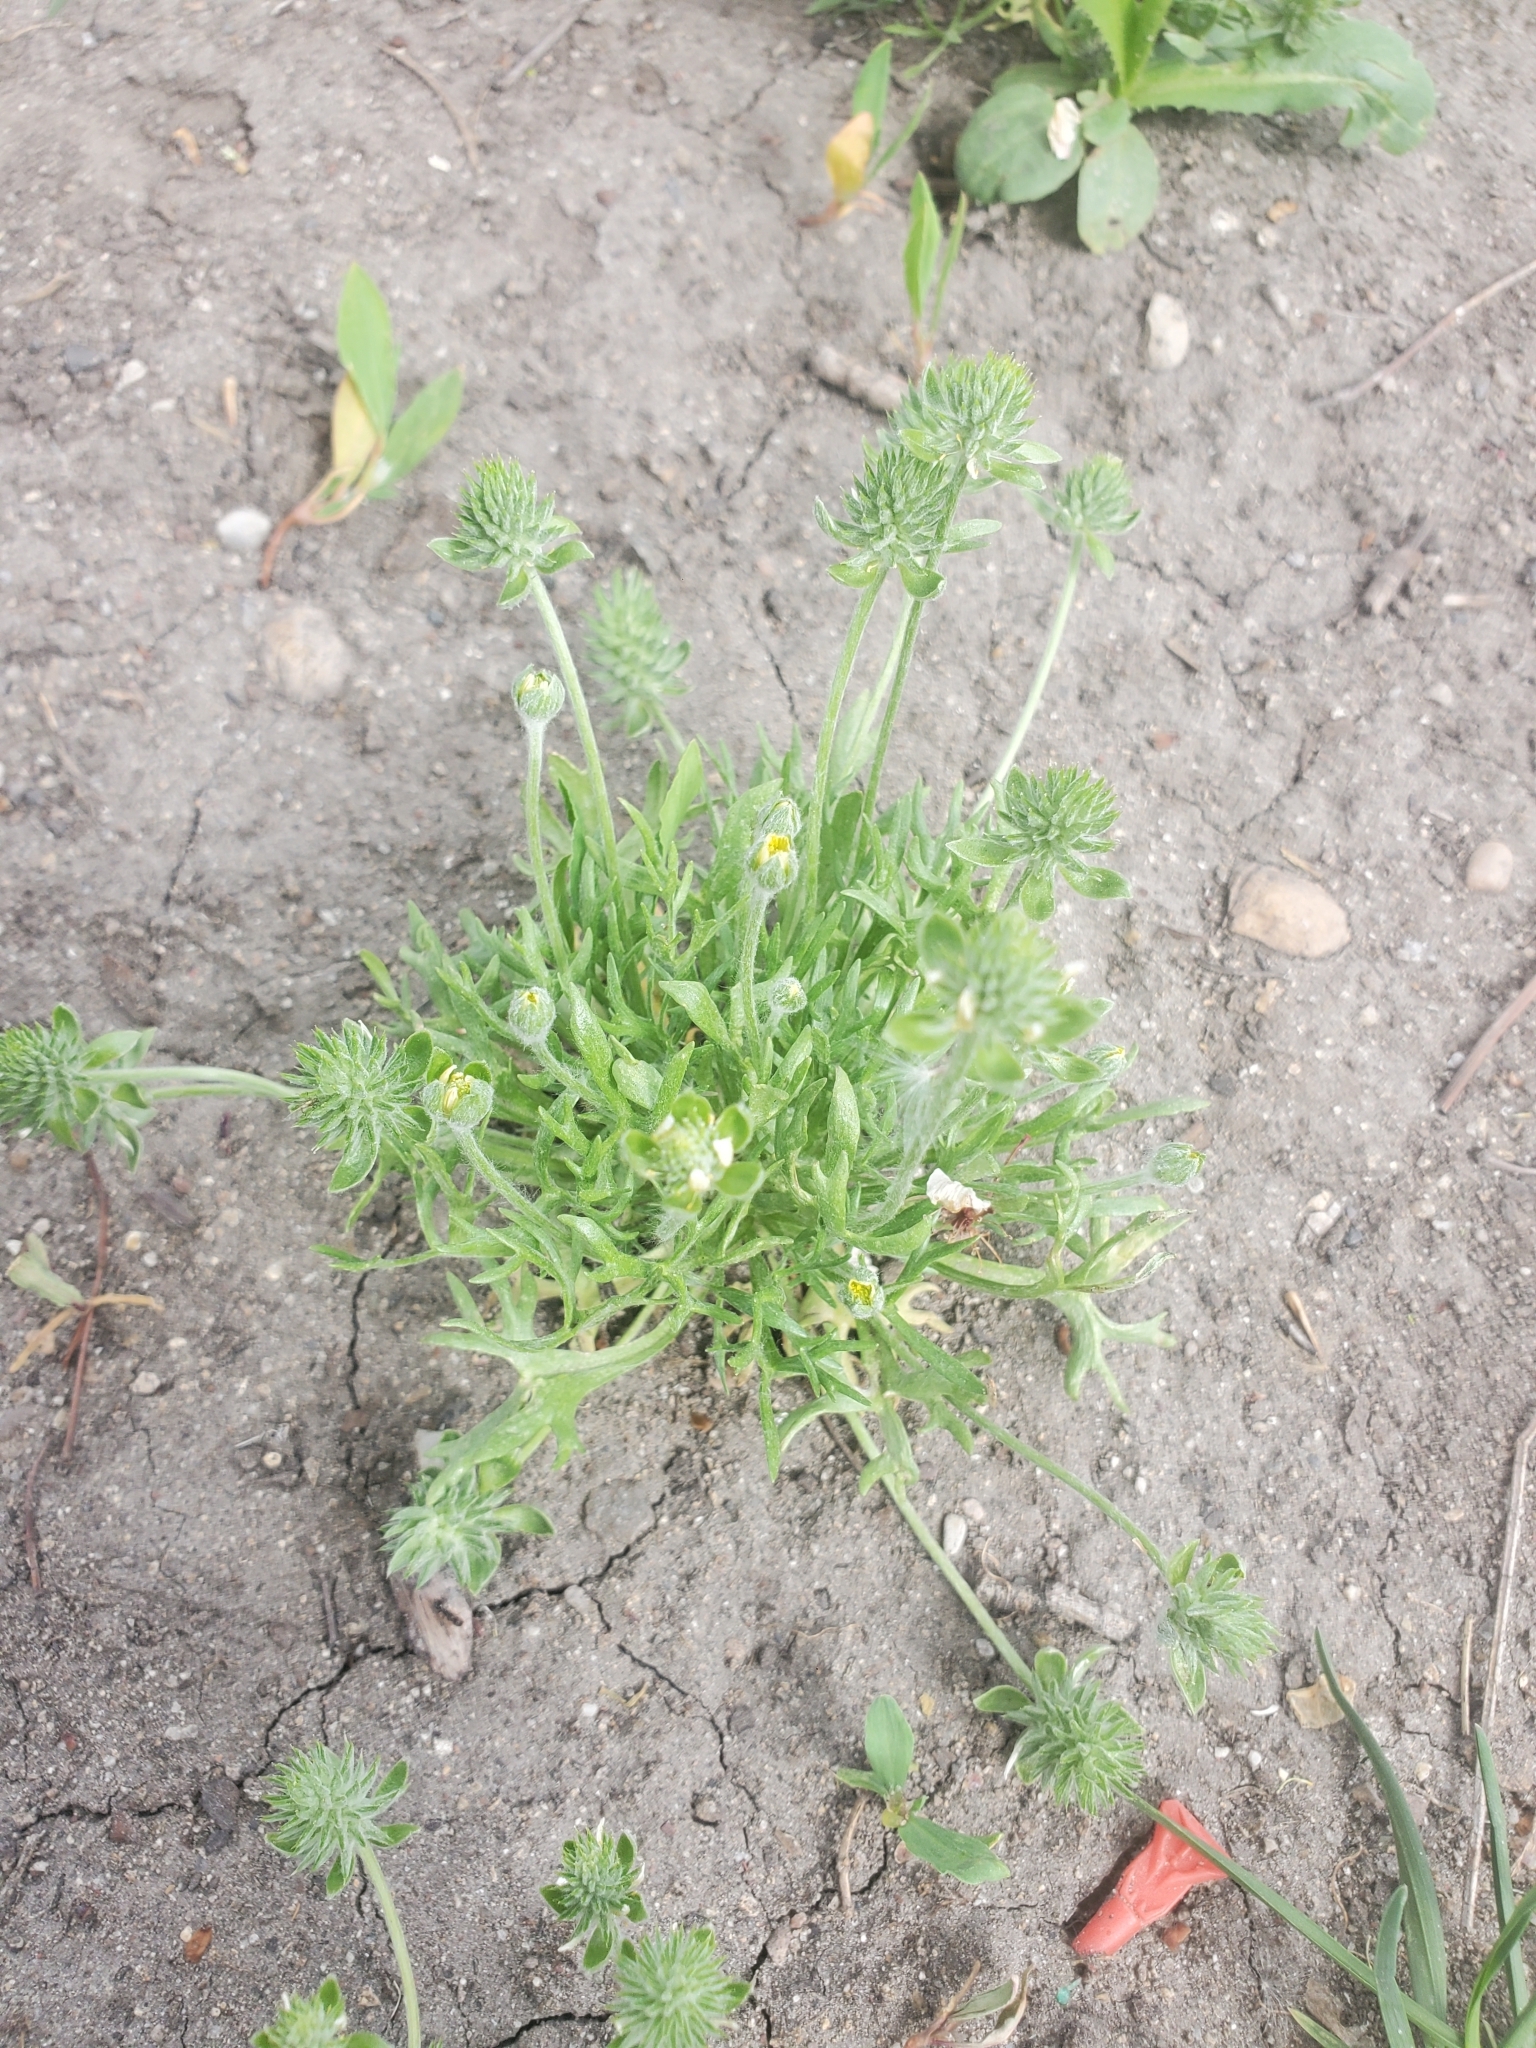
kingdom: Plantae
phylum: Tracheophyta
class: Magnoliopsida
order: Ranunculales
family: Ranunculaceae
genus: Ceratocephala
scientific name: Ceratocephala orthoceras
